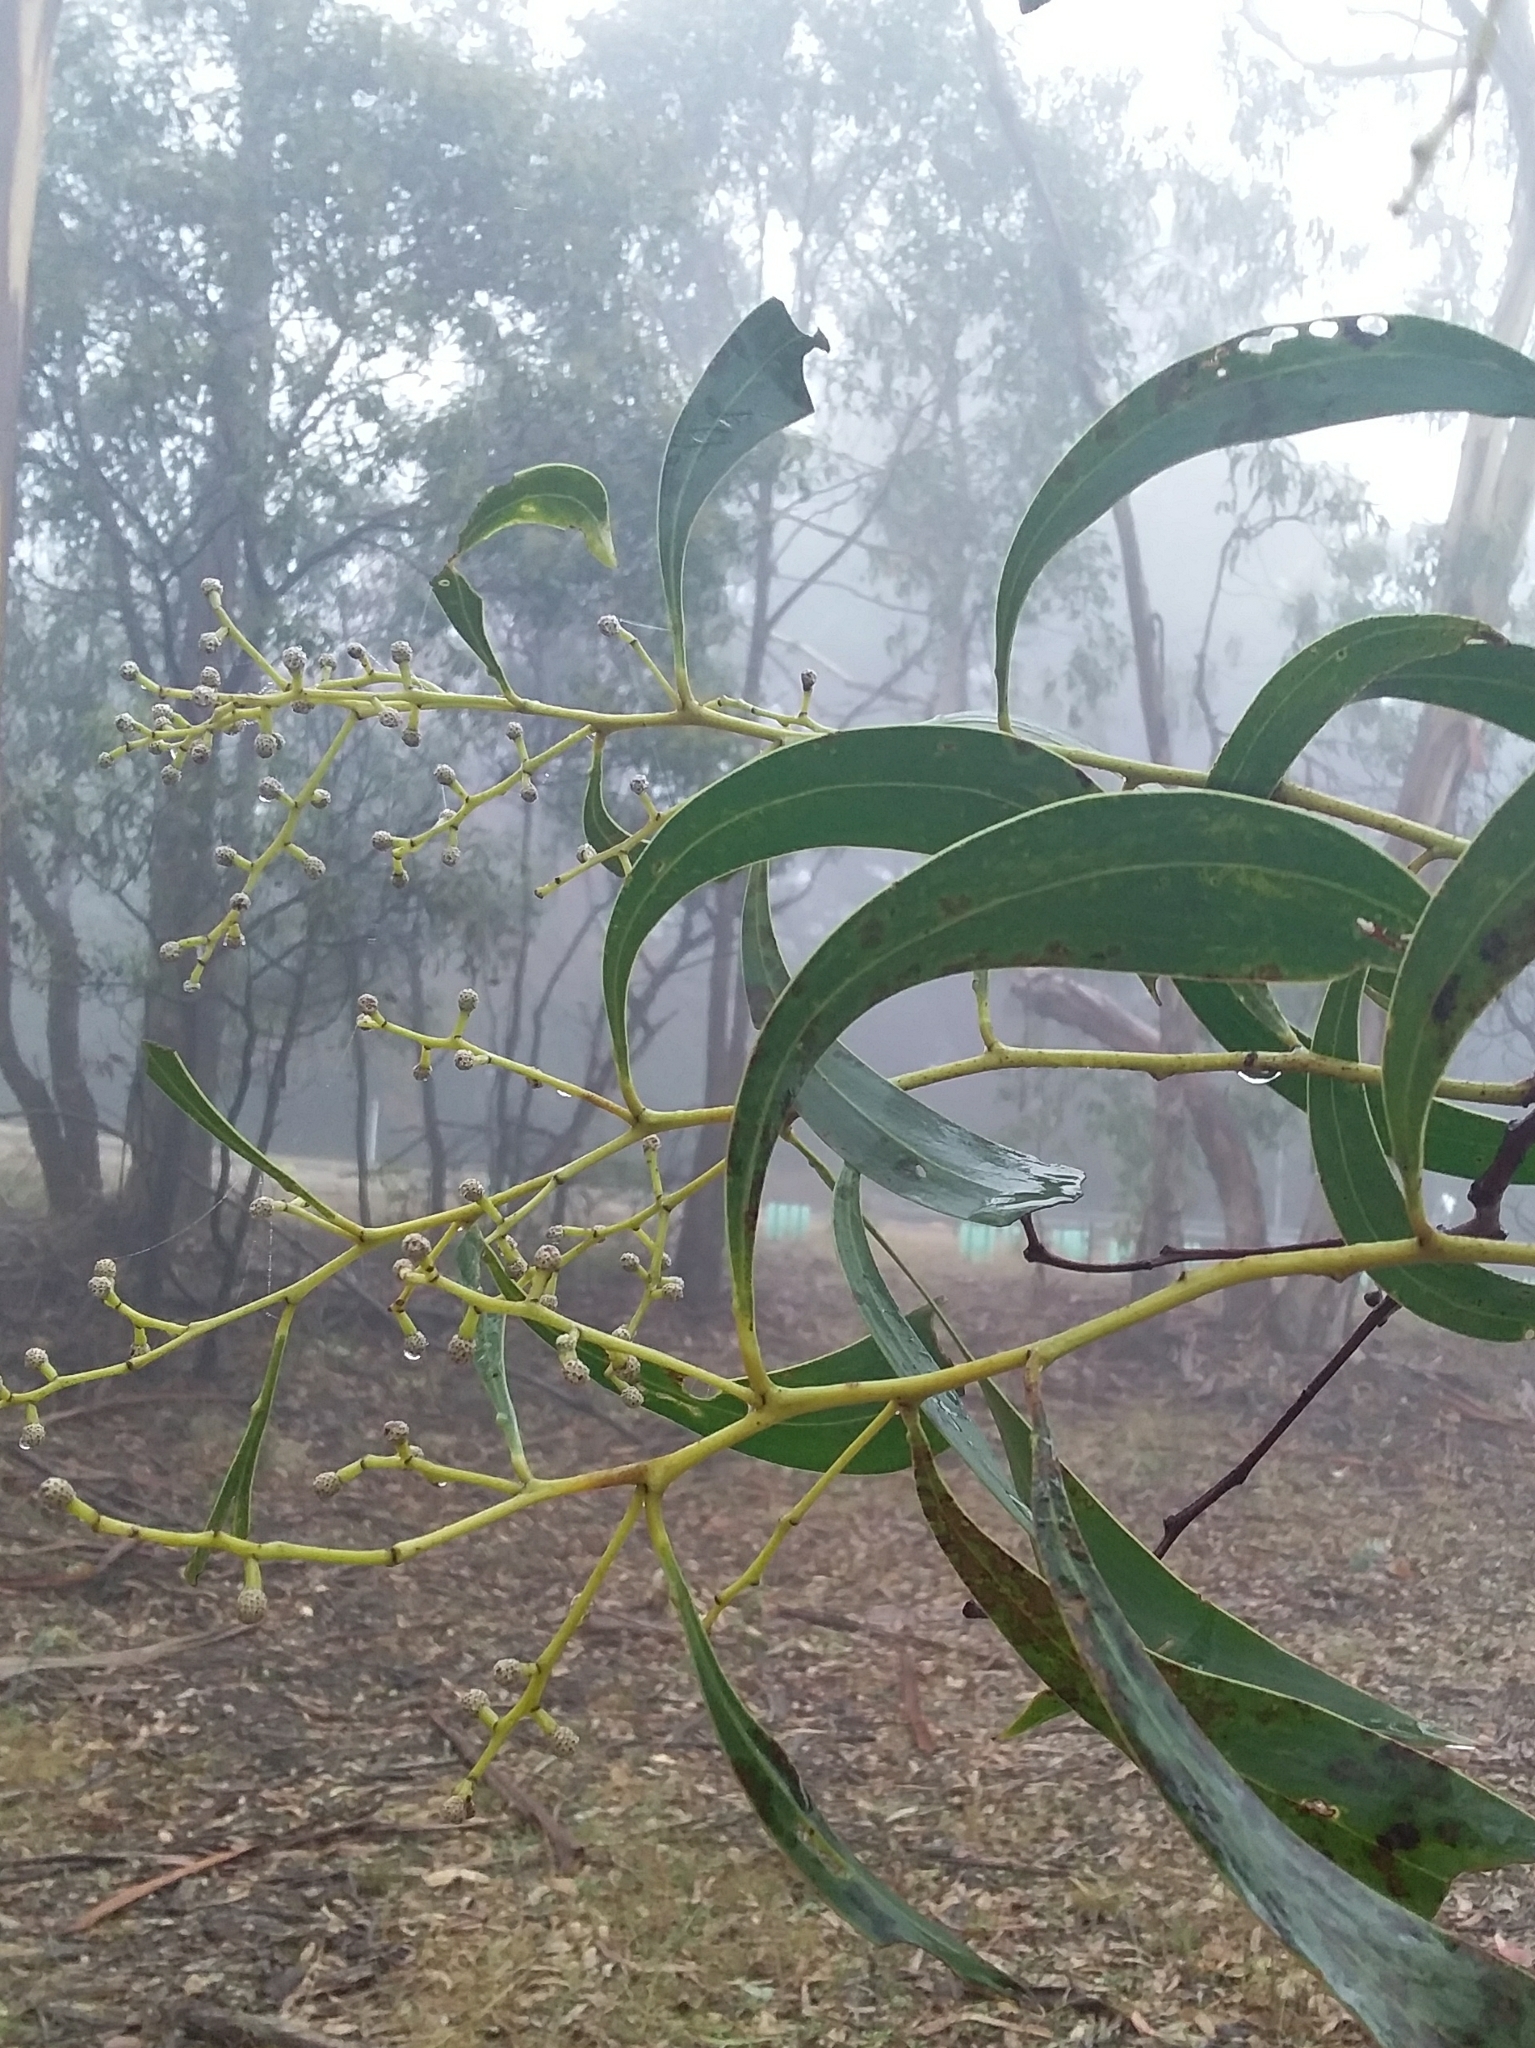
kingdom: Plantae
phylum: Tracheophyta
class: Magnoliopsida
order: Fabales
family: Fabaceae
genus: Acacia
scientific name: Acacia pycnantha
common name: Golden wattle
